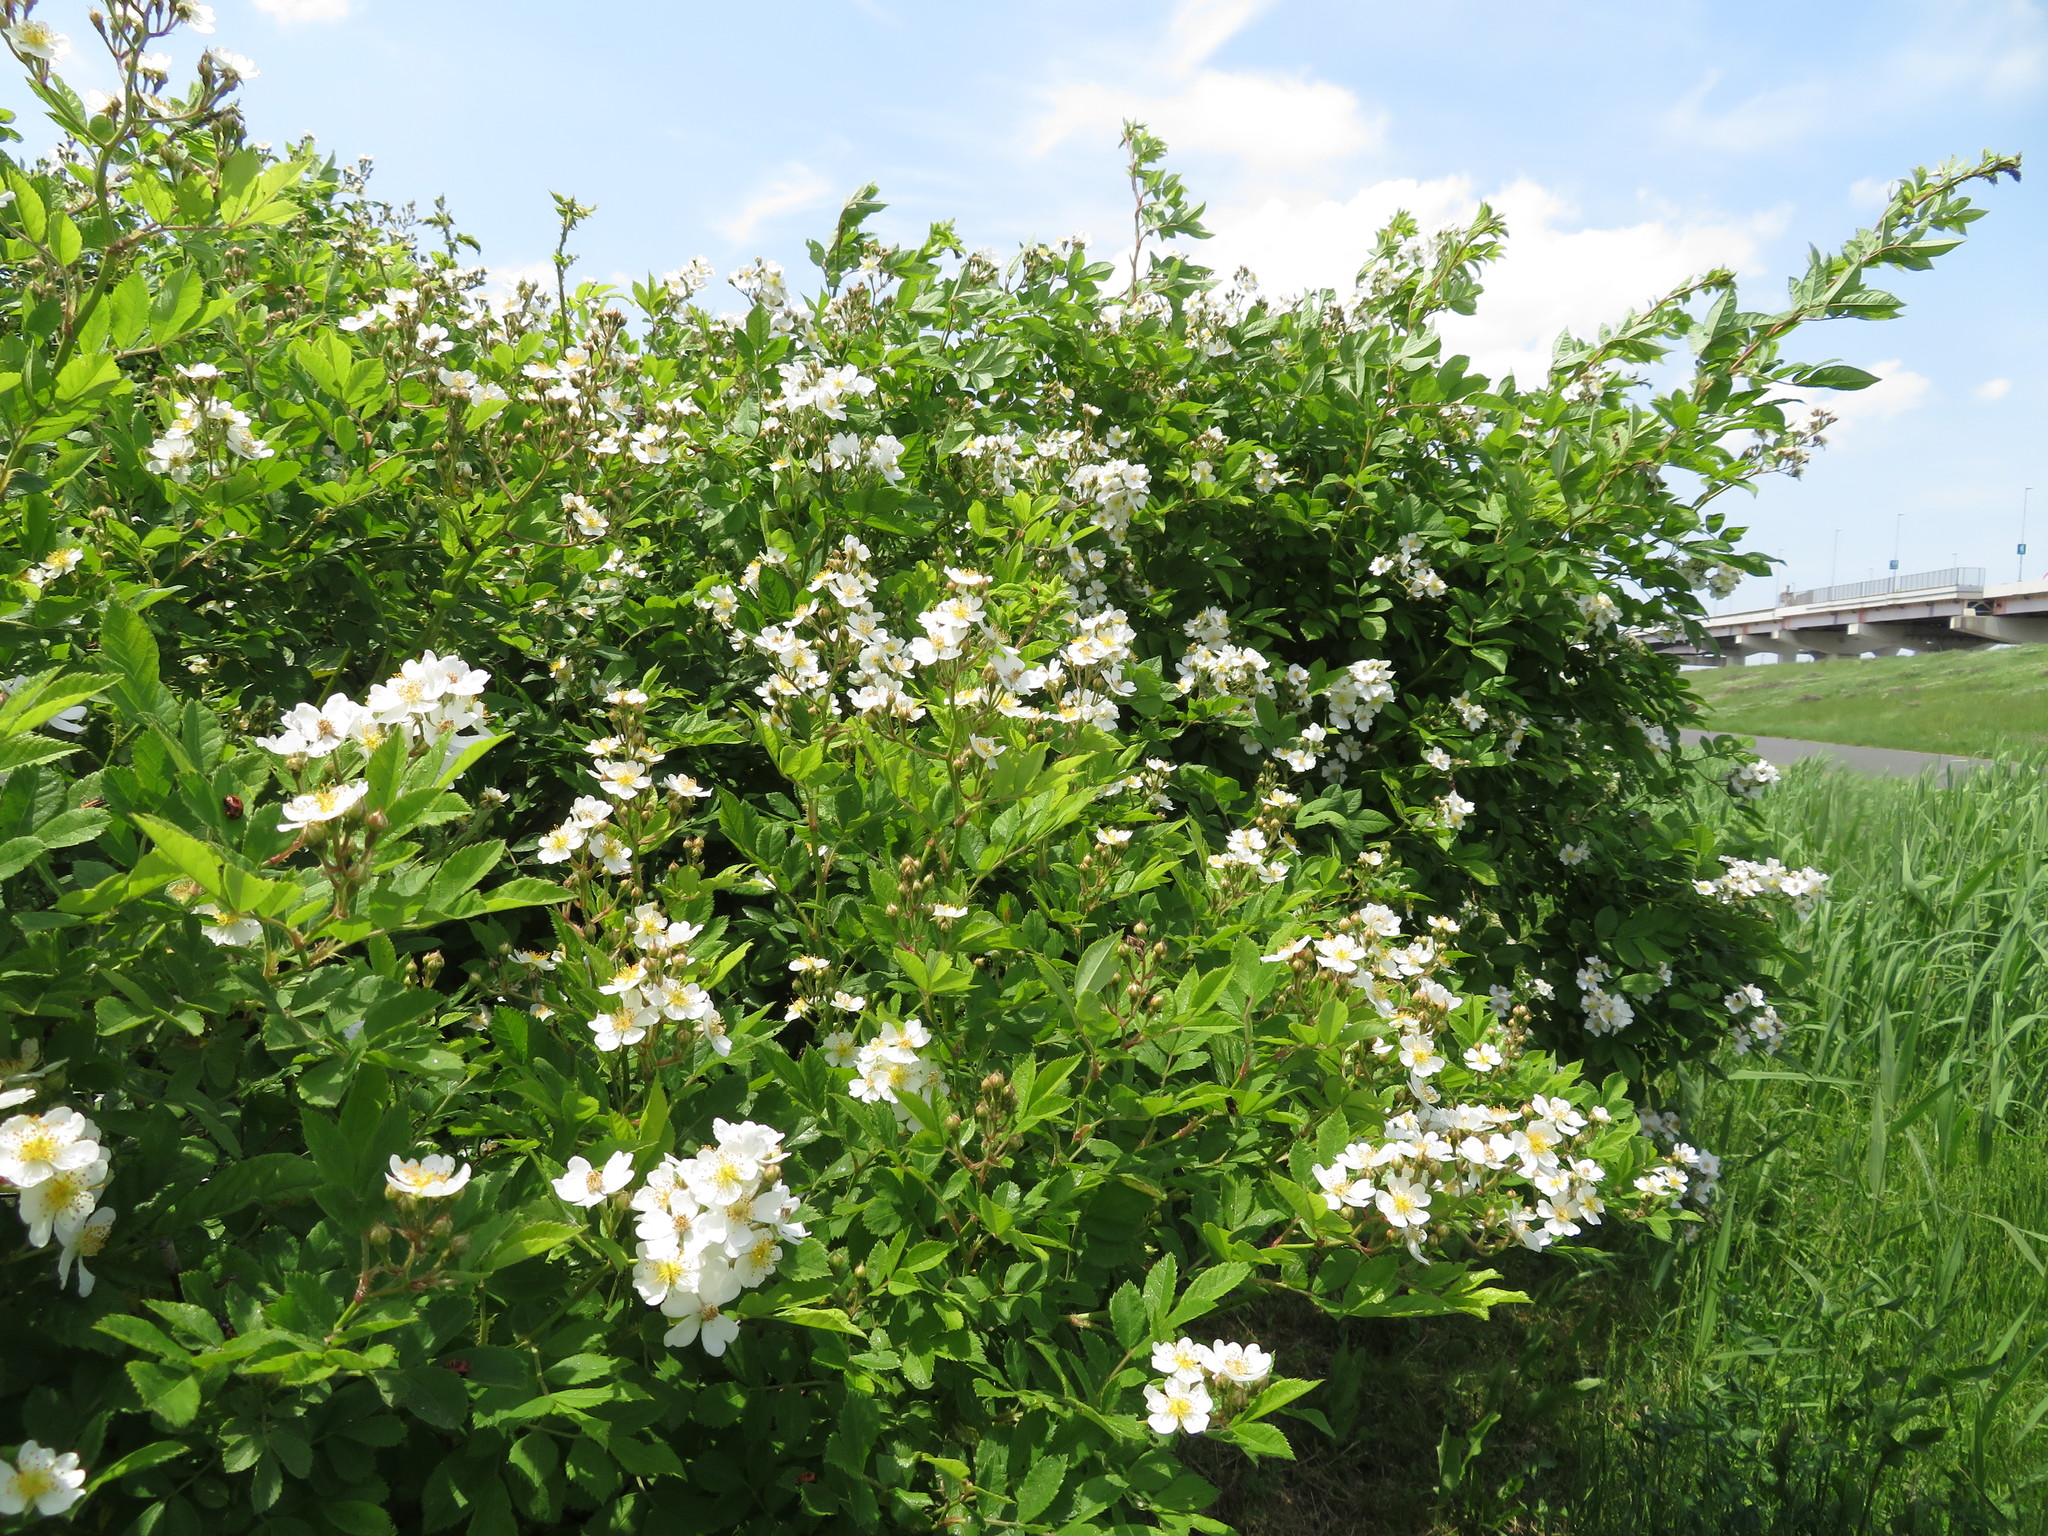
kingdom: Plantae
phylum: Tracheophyta
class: Magnoliopsida
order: Rosales
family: Rosaceae
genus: Rosa
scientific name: Rosa multiflora
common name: Multiflora rose
